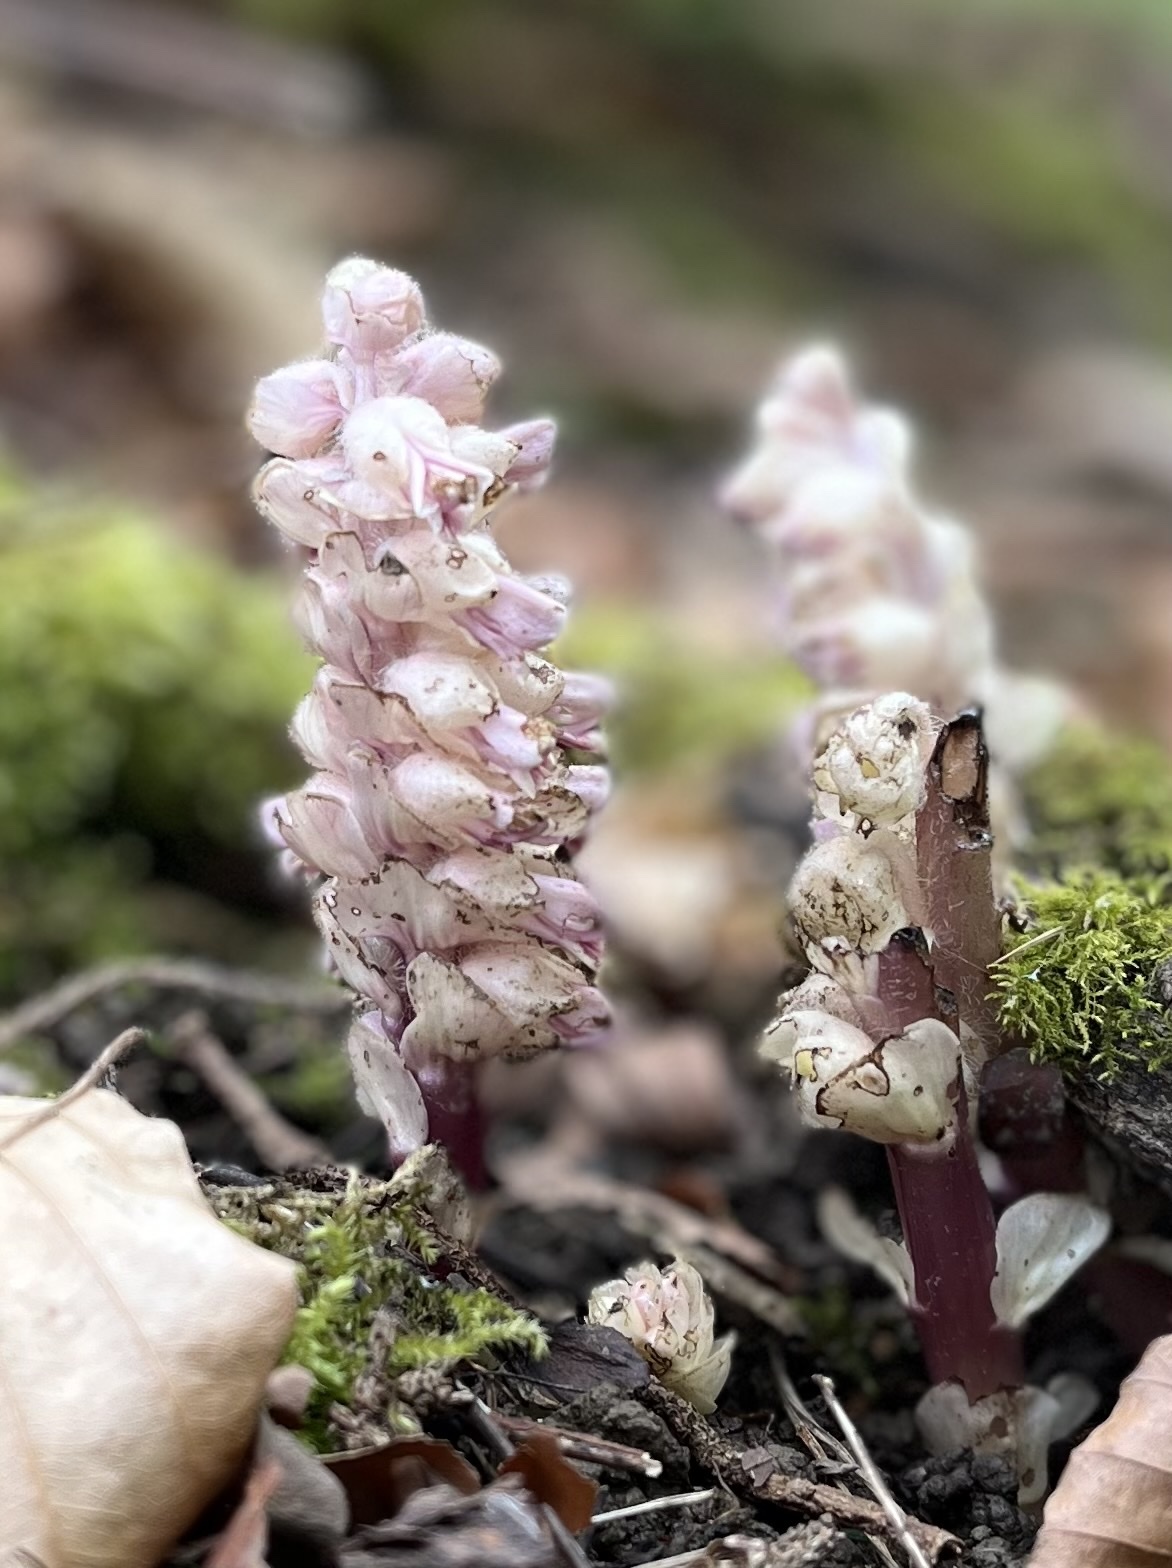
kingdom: Plantae
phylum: Tracheophyta
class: Magnoliopsida
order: Lamiales
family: Orobanchaceae
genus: Lathraea
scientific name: Lathraea squamaria
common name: Toothwort
